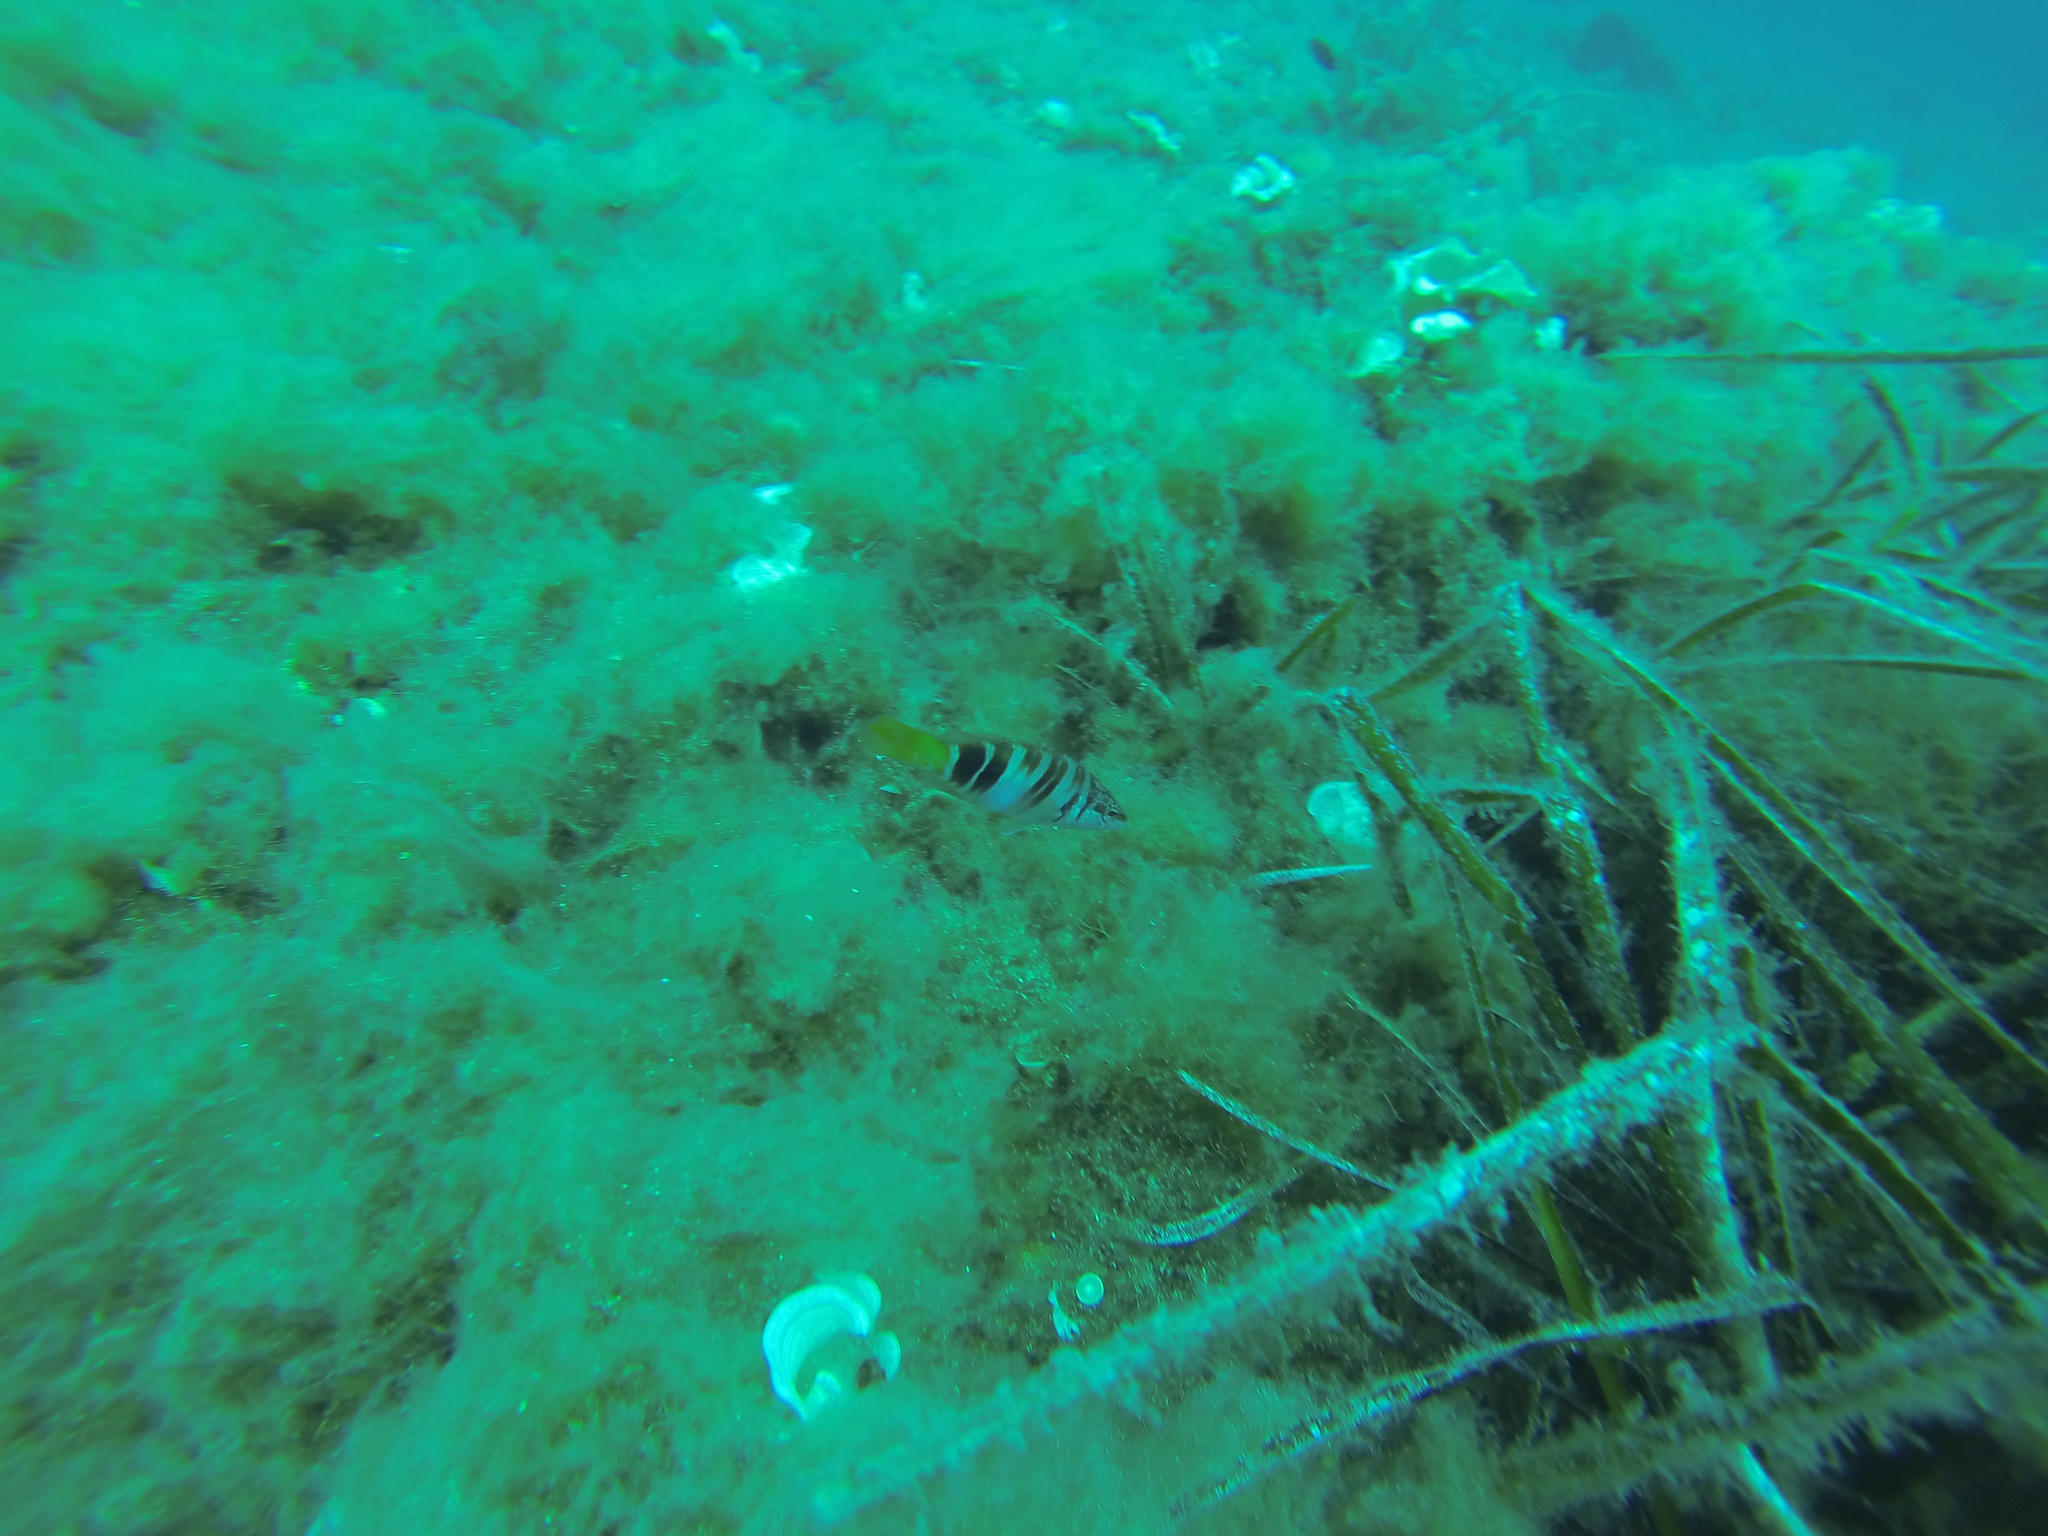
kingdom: Animalia
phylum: Chordata
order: Perciformes
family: Serranidae
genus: Serranus
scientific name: Serranus scriba
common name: Painted comber
